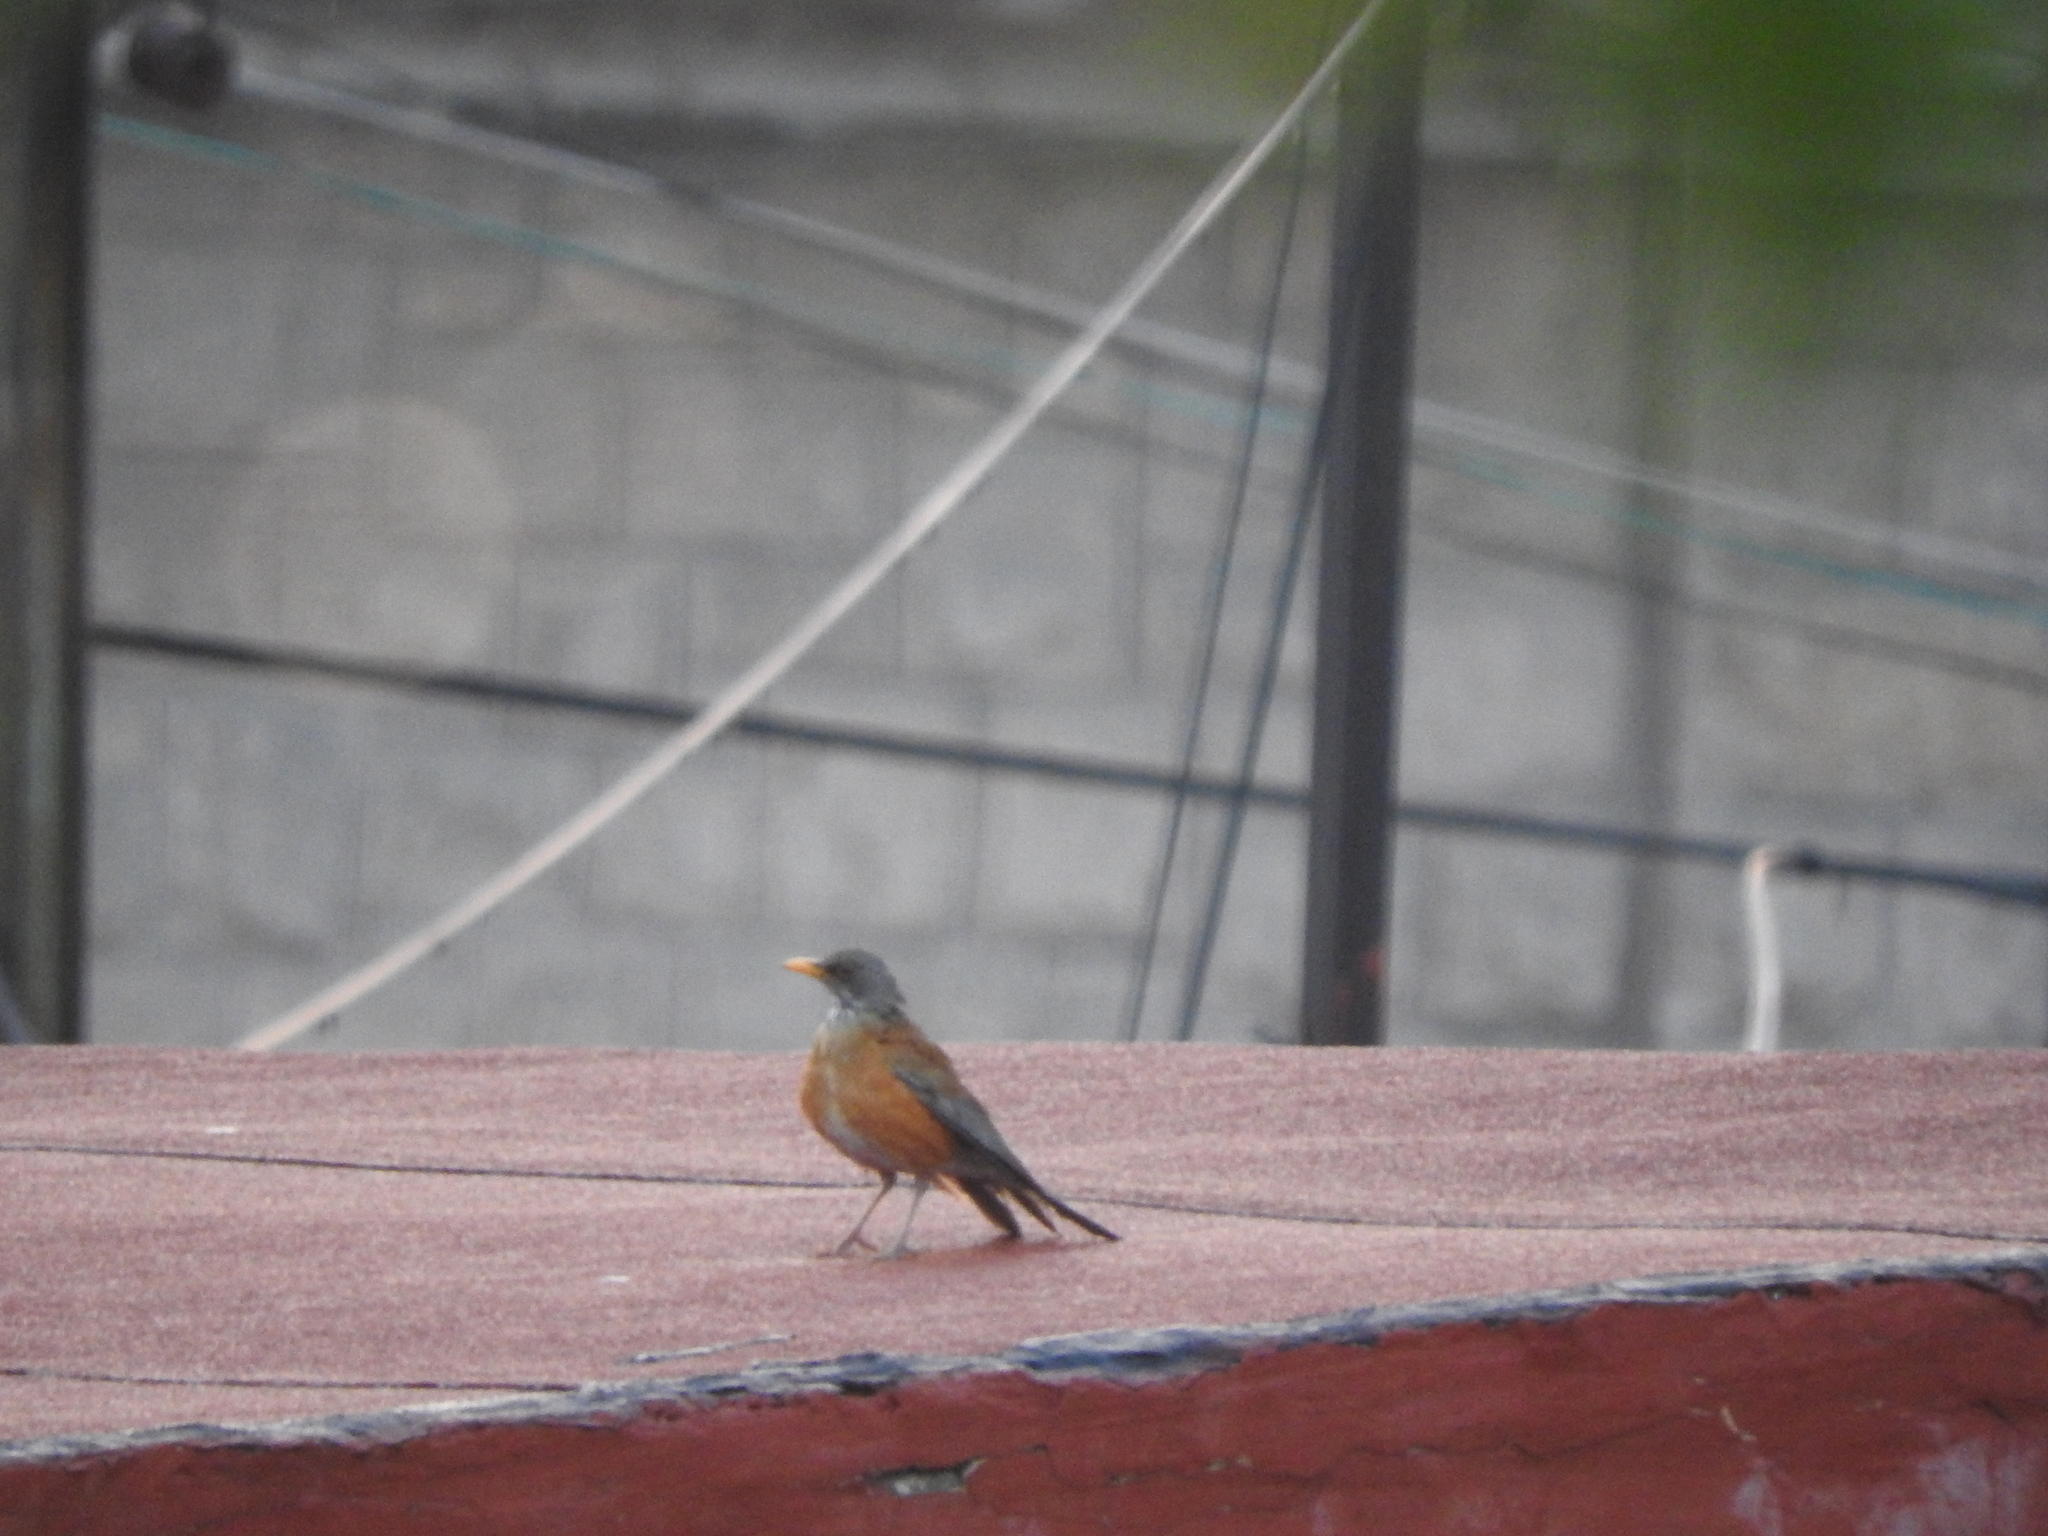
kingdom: Animalia
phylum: Chordata
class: Aves
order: Passeriformes
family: Turdidae
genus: Turdus
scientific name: Turdus rufopalliatus
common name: Rufous-backed robin
